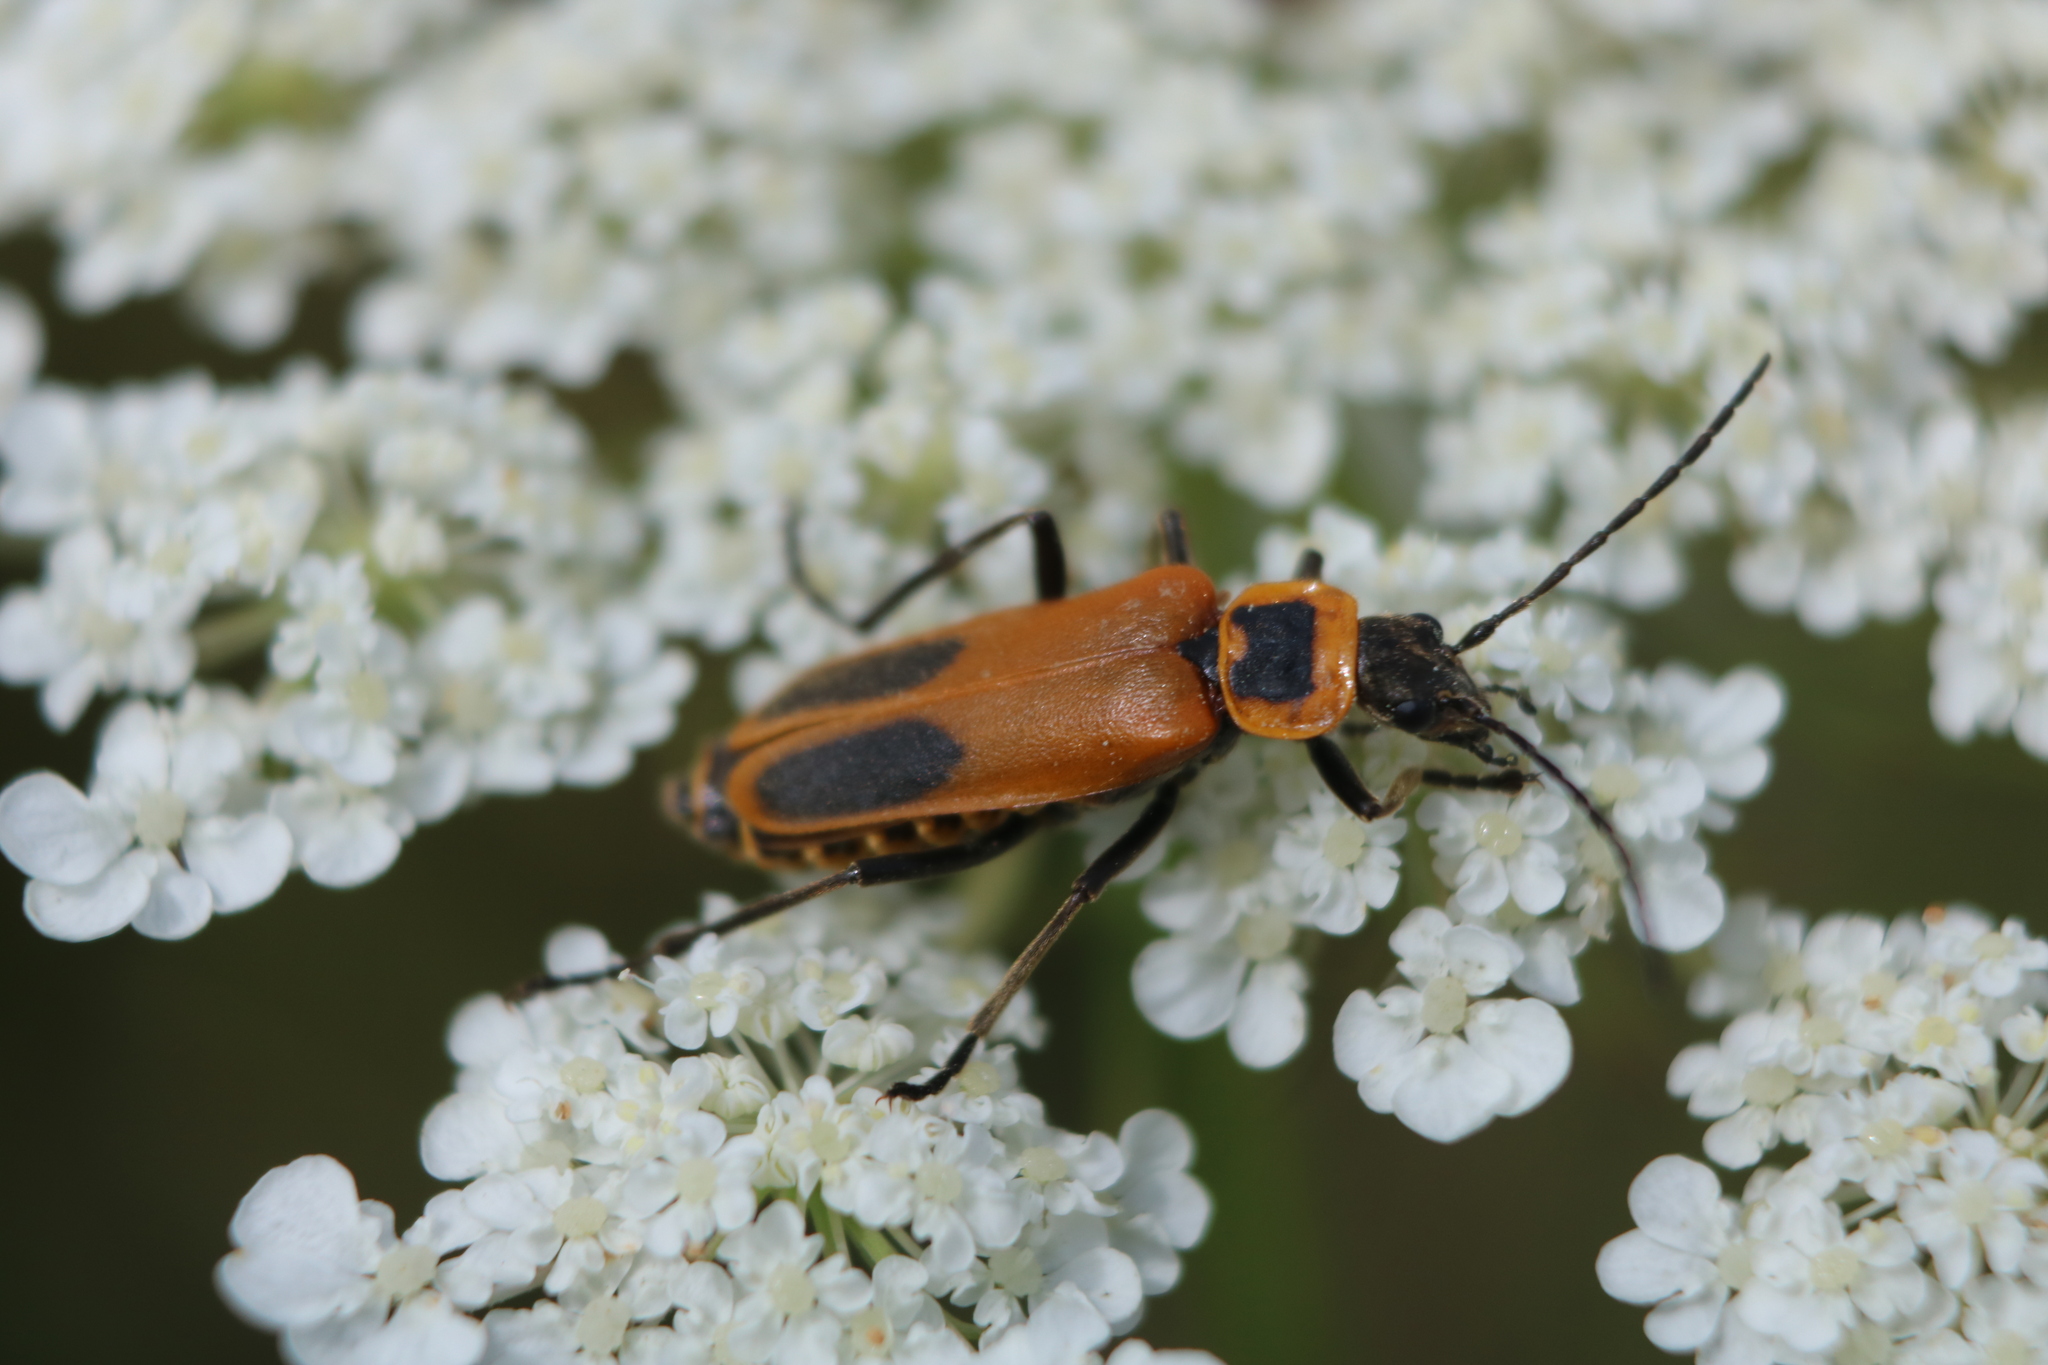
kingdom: Animalia
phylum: Arthropoda
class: Insecta
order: Coleoptera
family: Cantharidae
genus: Chauliognathus
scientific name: Chauliognathus pensylvanicus
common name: Goldenrod soldier beetle
